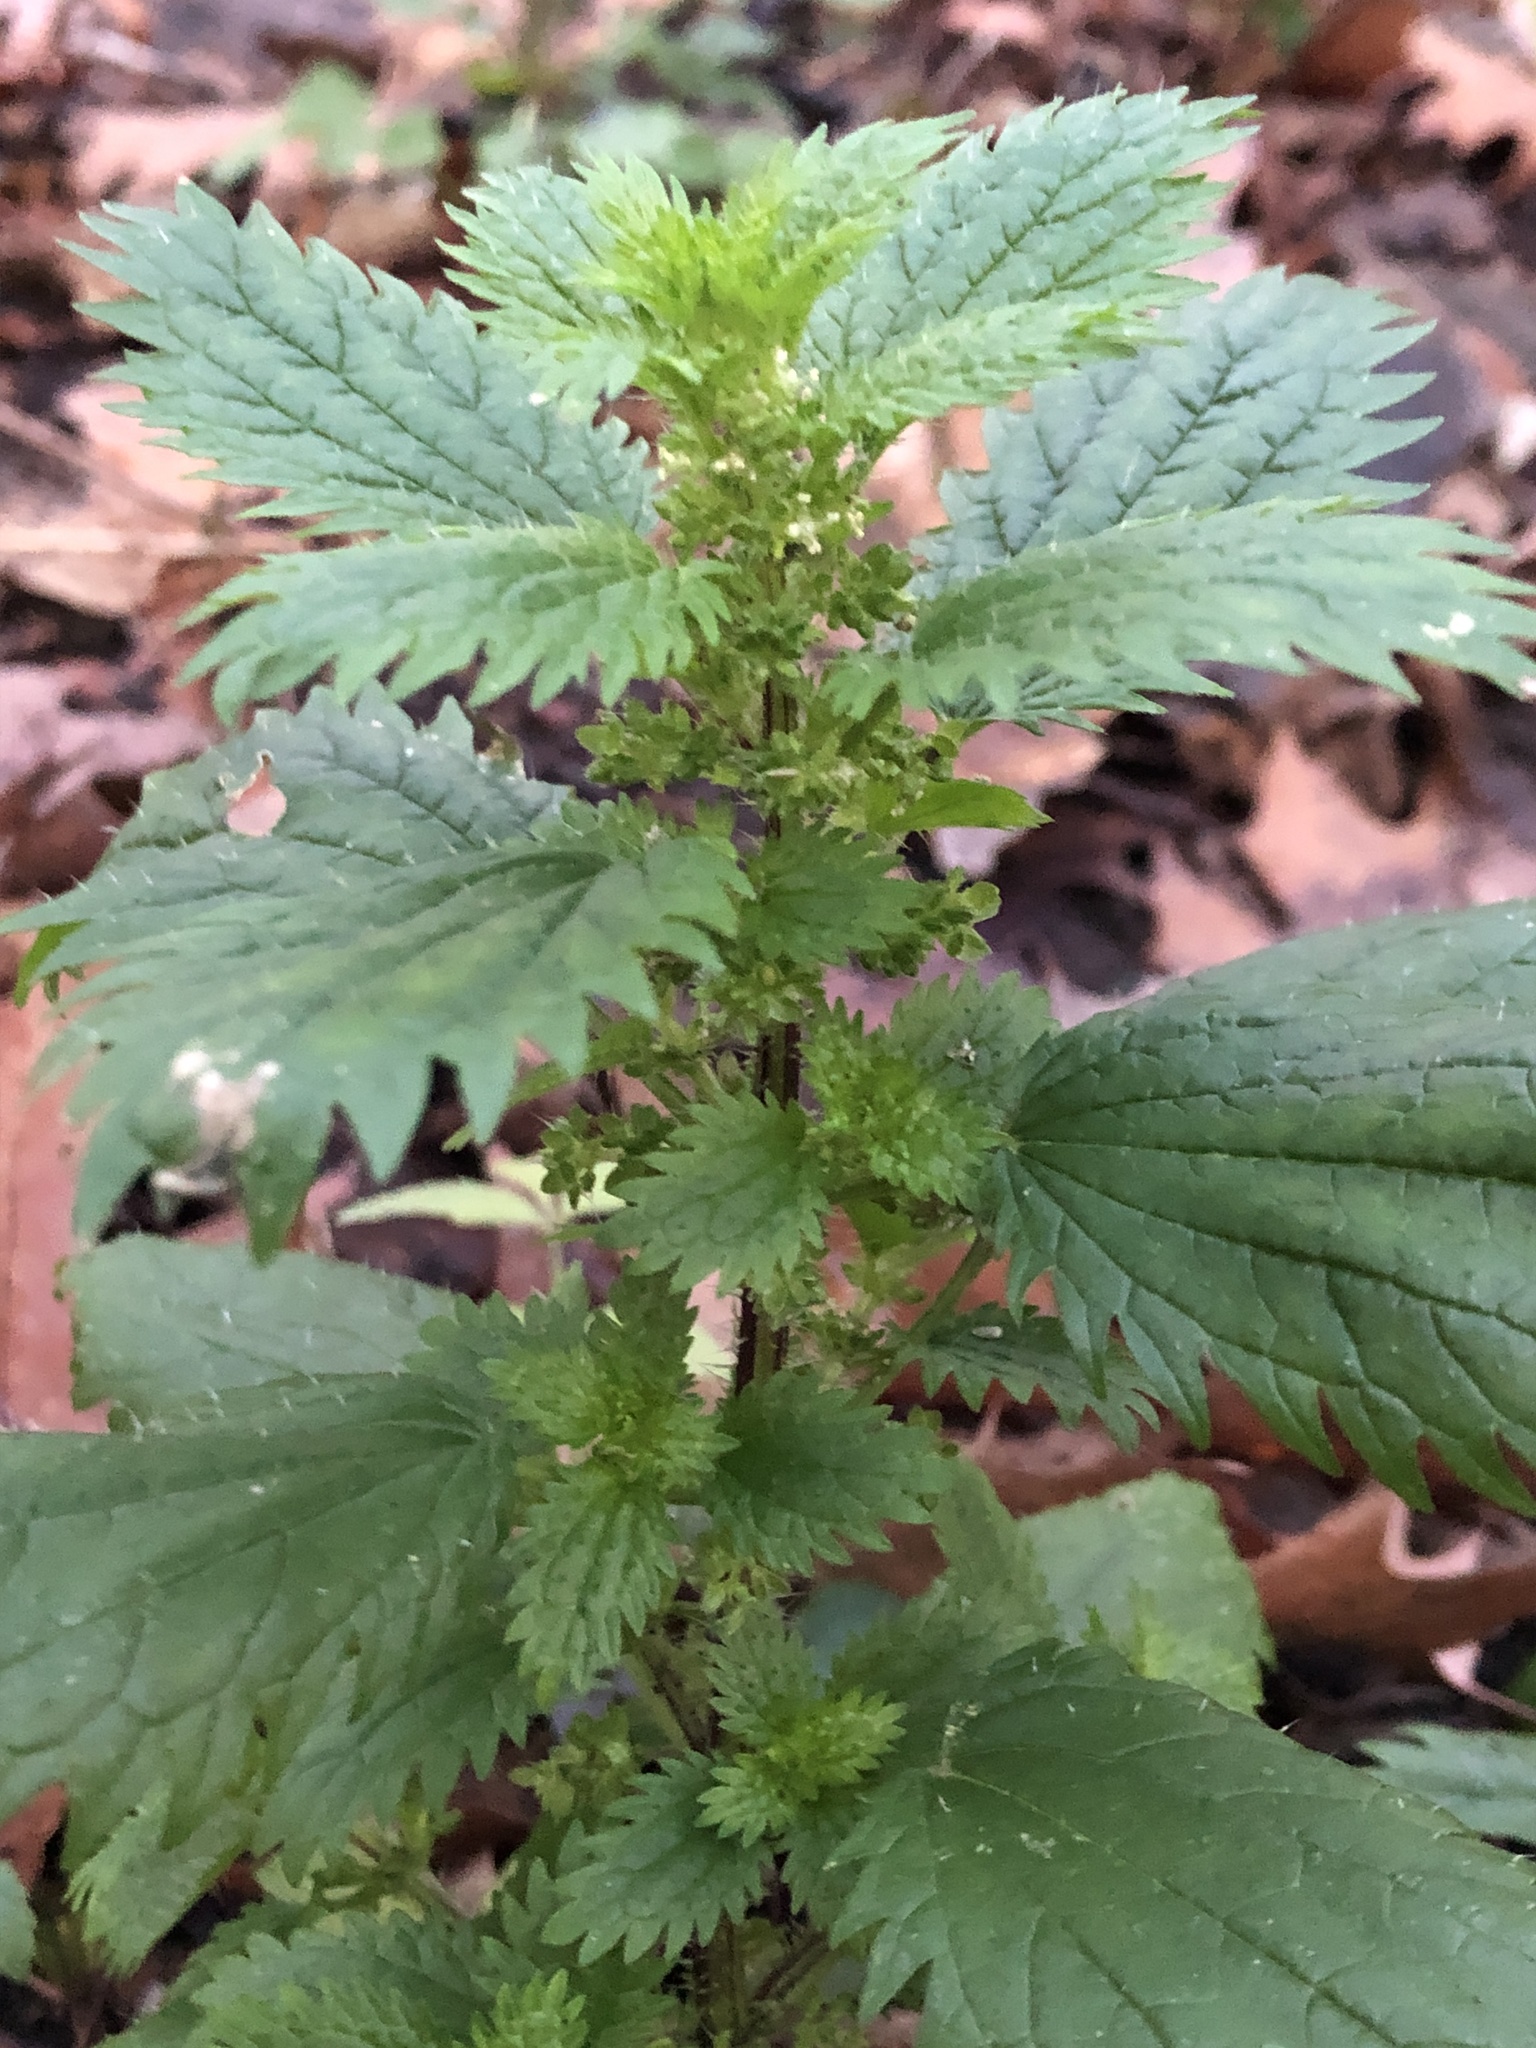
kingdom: Plantae
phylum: Tracheophyta
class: Magnoliopsida
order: Rosales
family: Urticaceae
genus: Urtica
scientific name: Urtica urens
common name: Dwarf nettle
